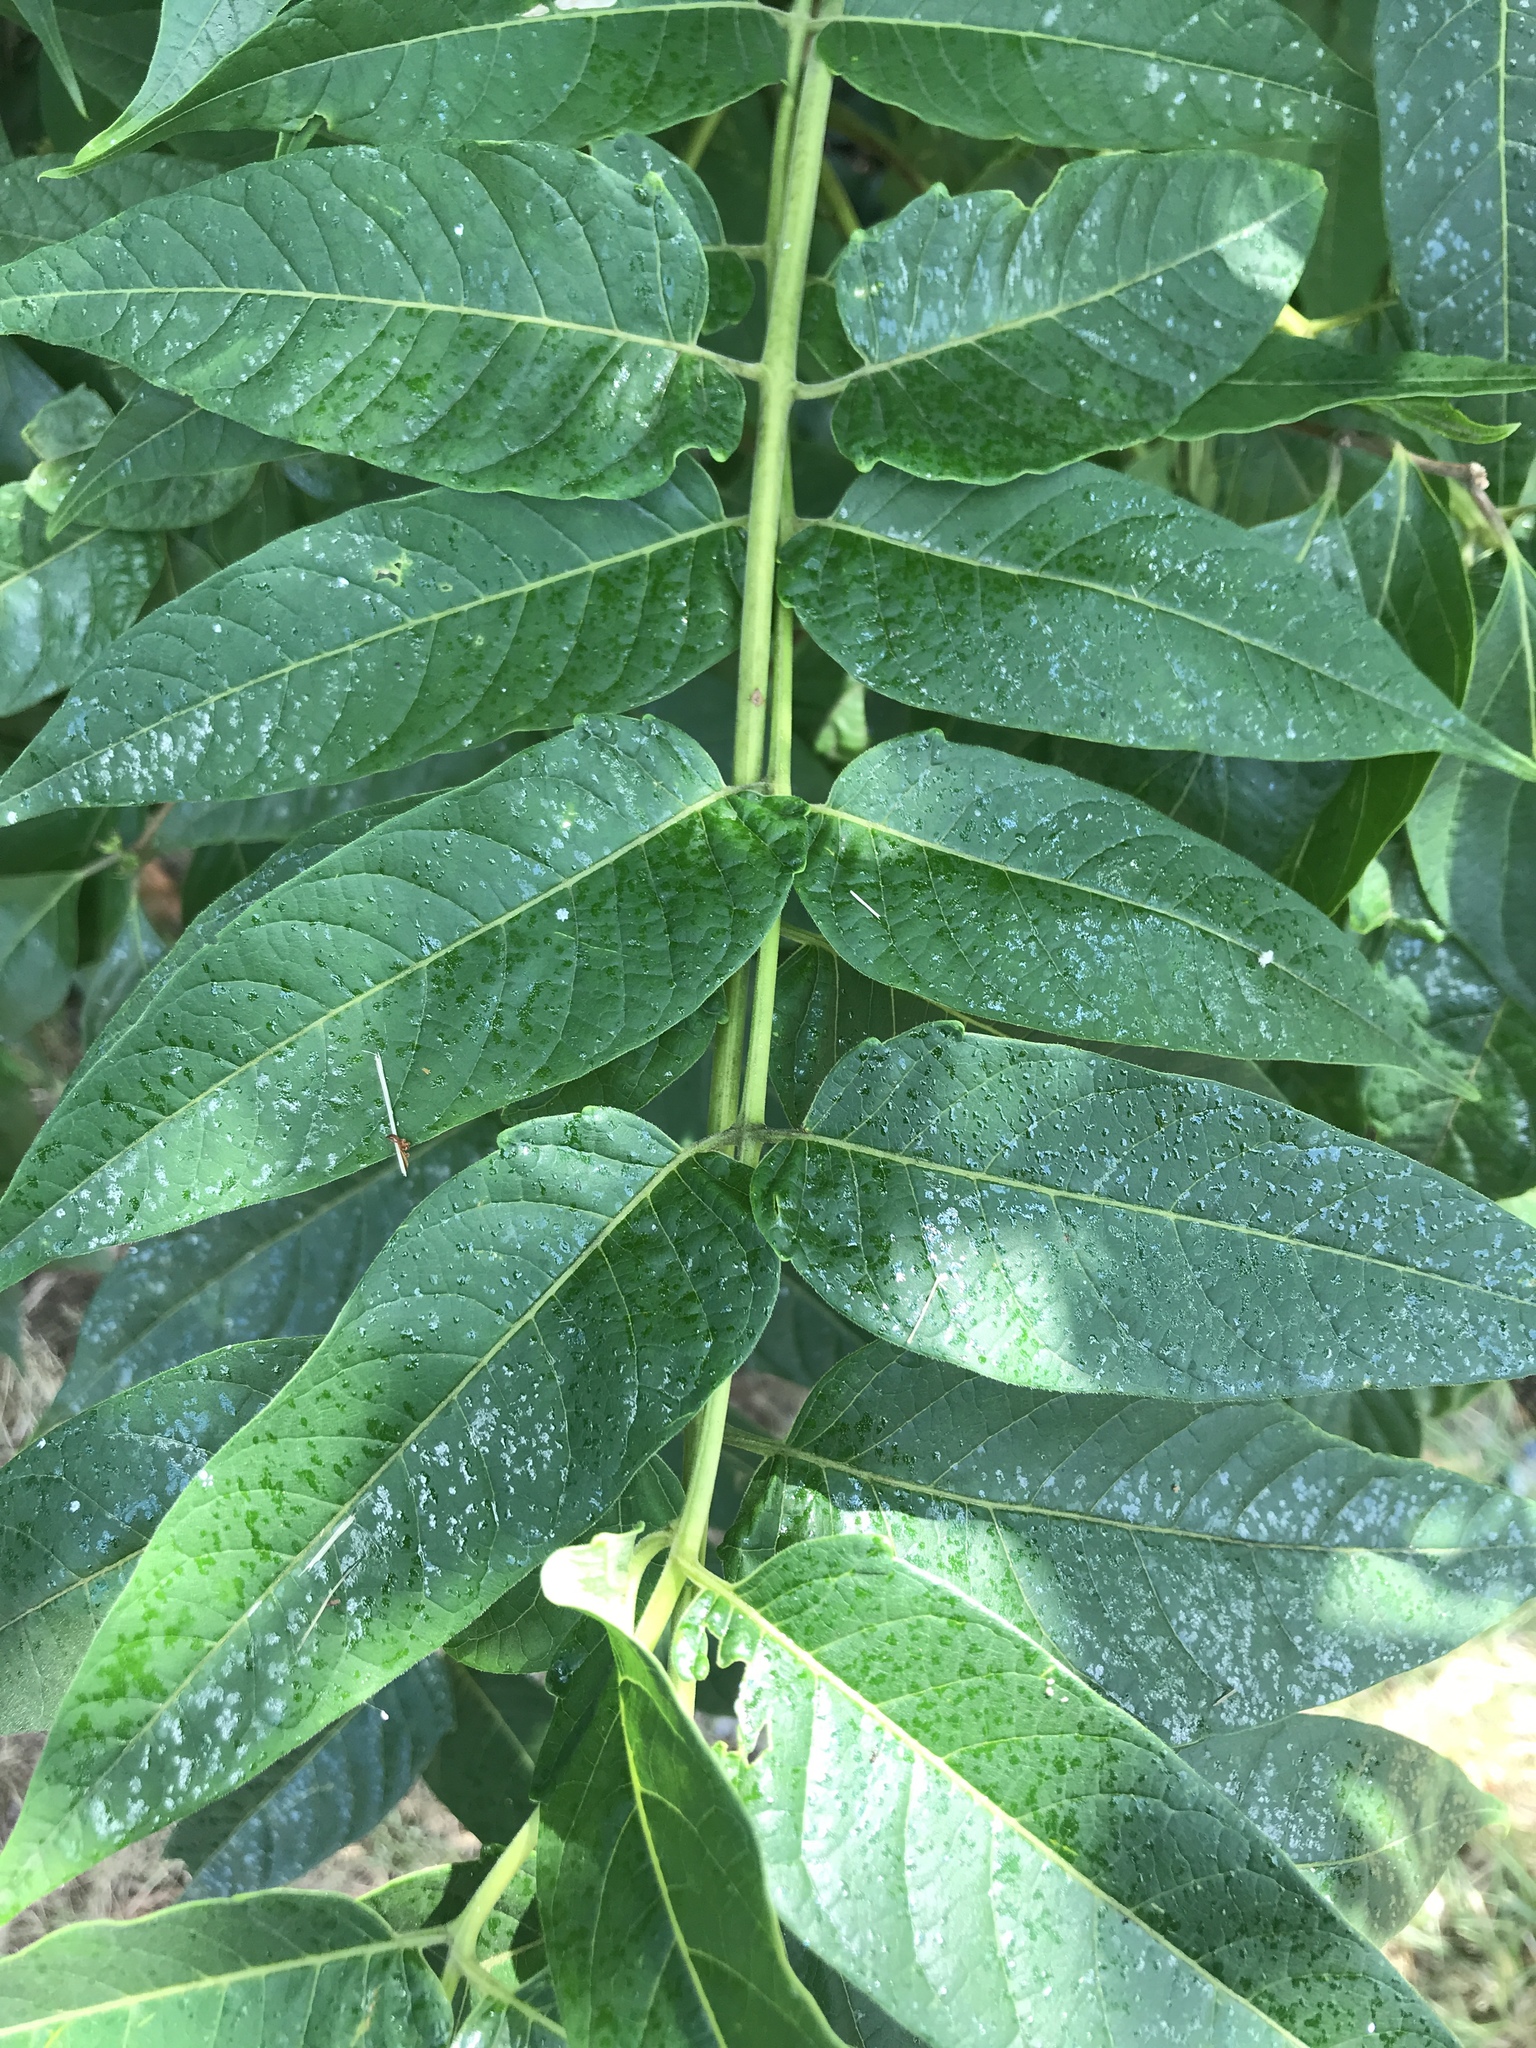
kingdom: Plantae
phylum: Tracheophyta
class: Magnoliopsida
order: Sapindales
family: Simaroubaceae
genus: Ailanthus
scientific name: Ailanthus altissima
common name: Tree-of-heaven
